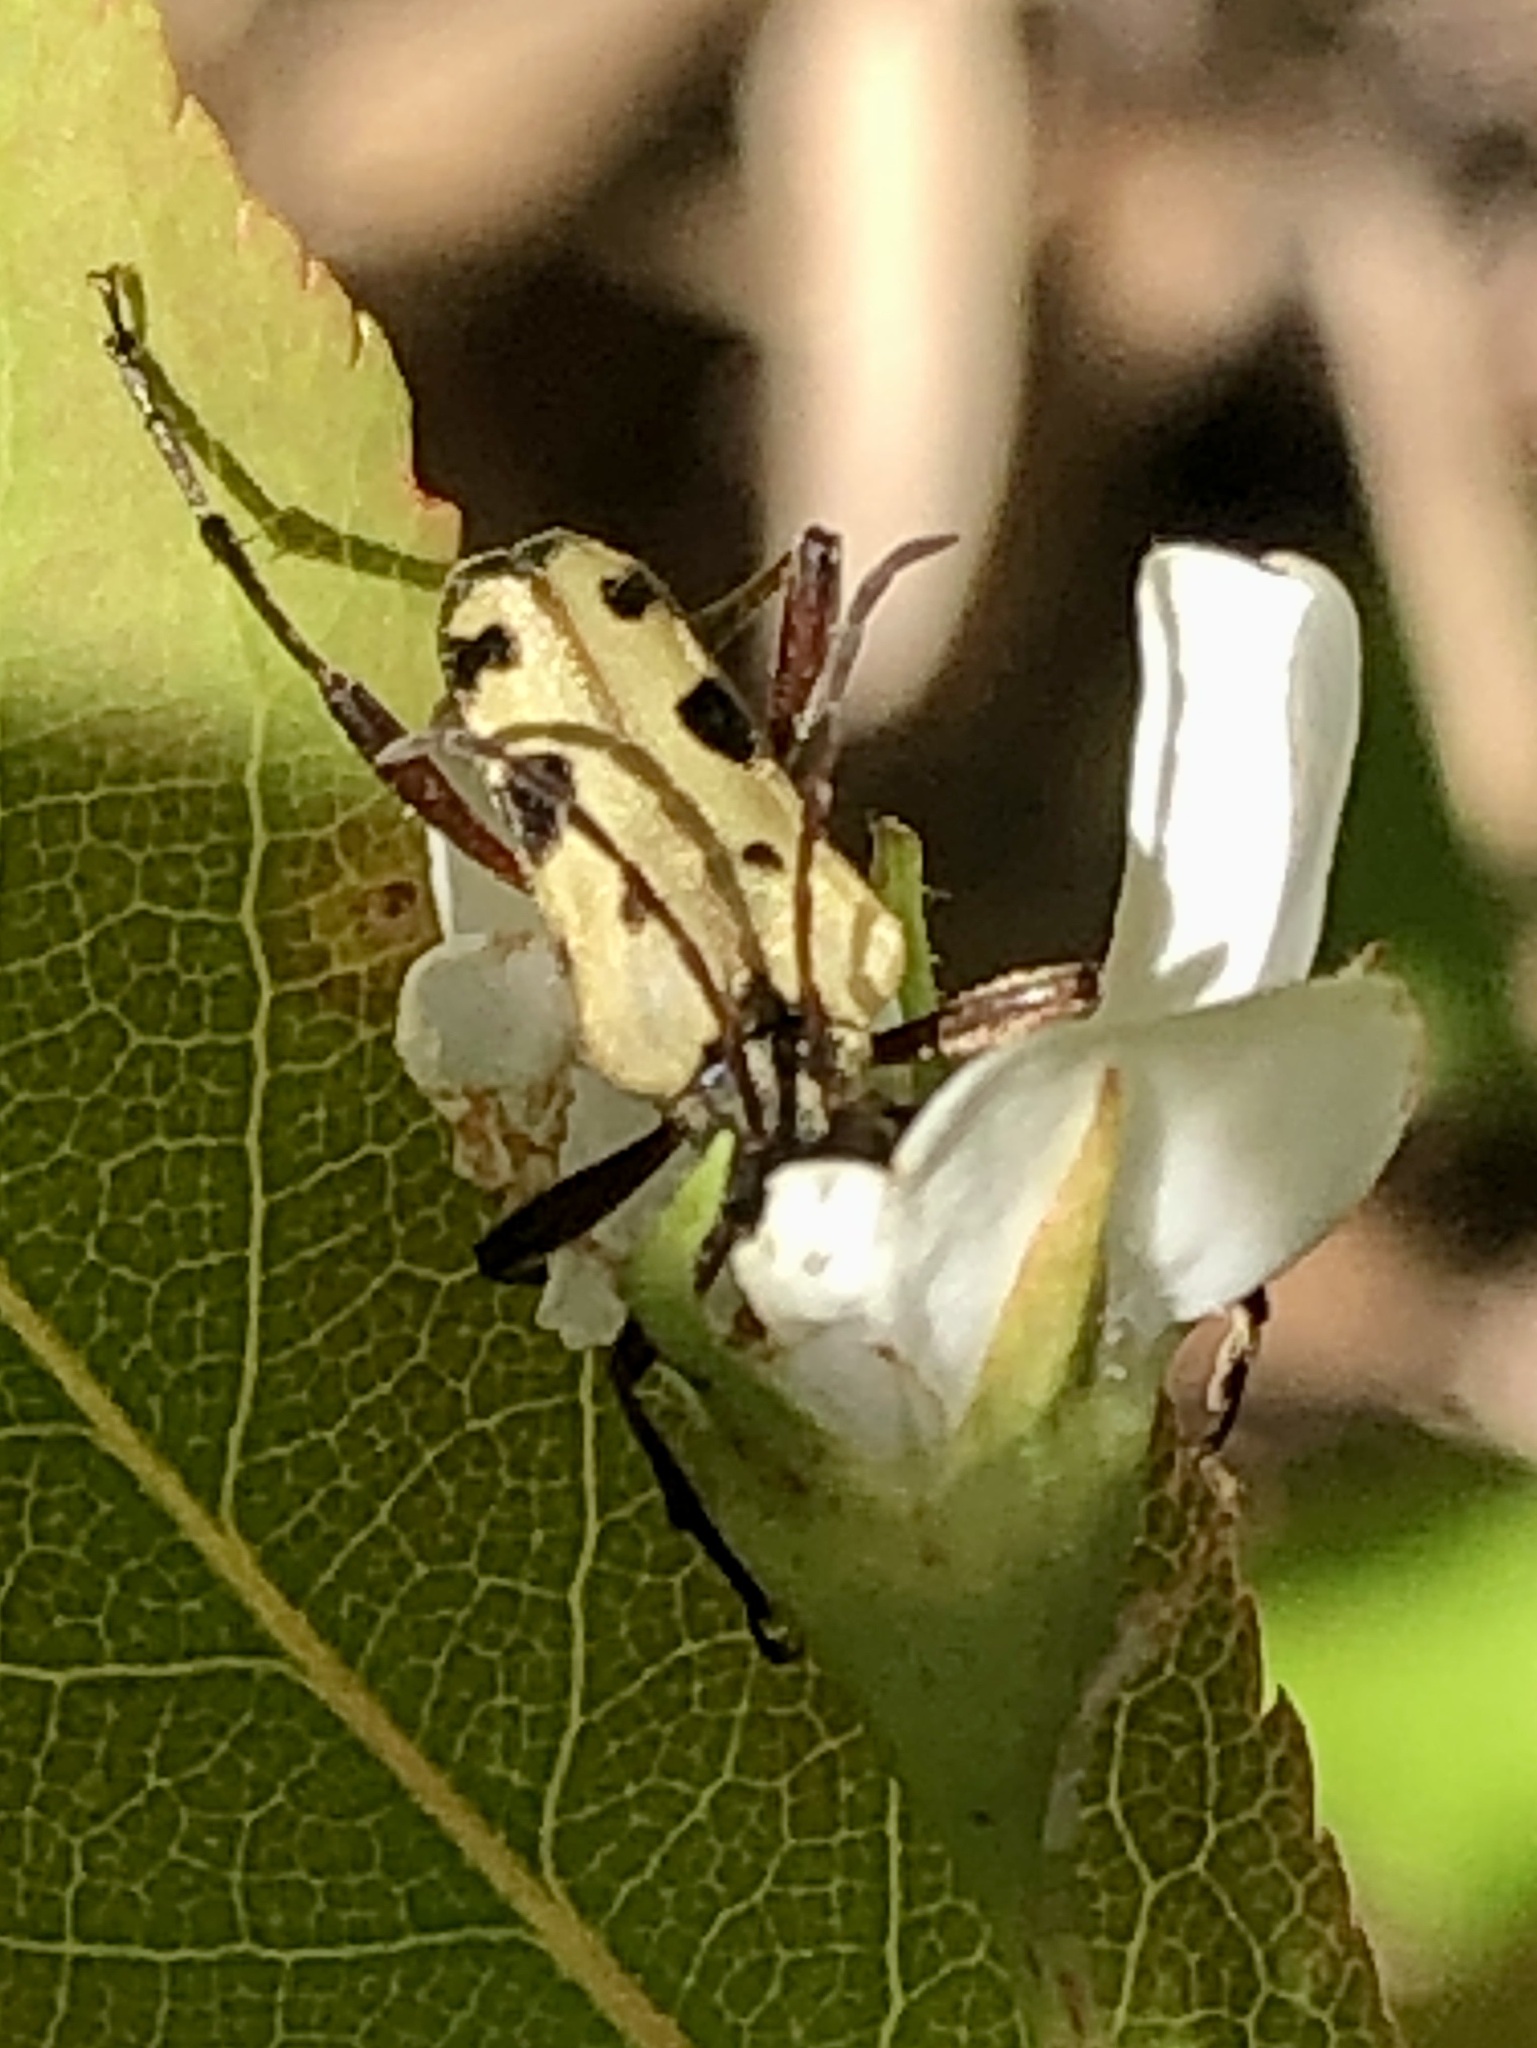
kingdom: Animalia
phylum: Arthropoda
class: Insecta
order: Coleoptera
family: Cerambycidae
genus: Evodinus
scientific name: Evodinus monticola
